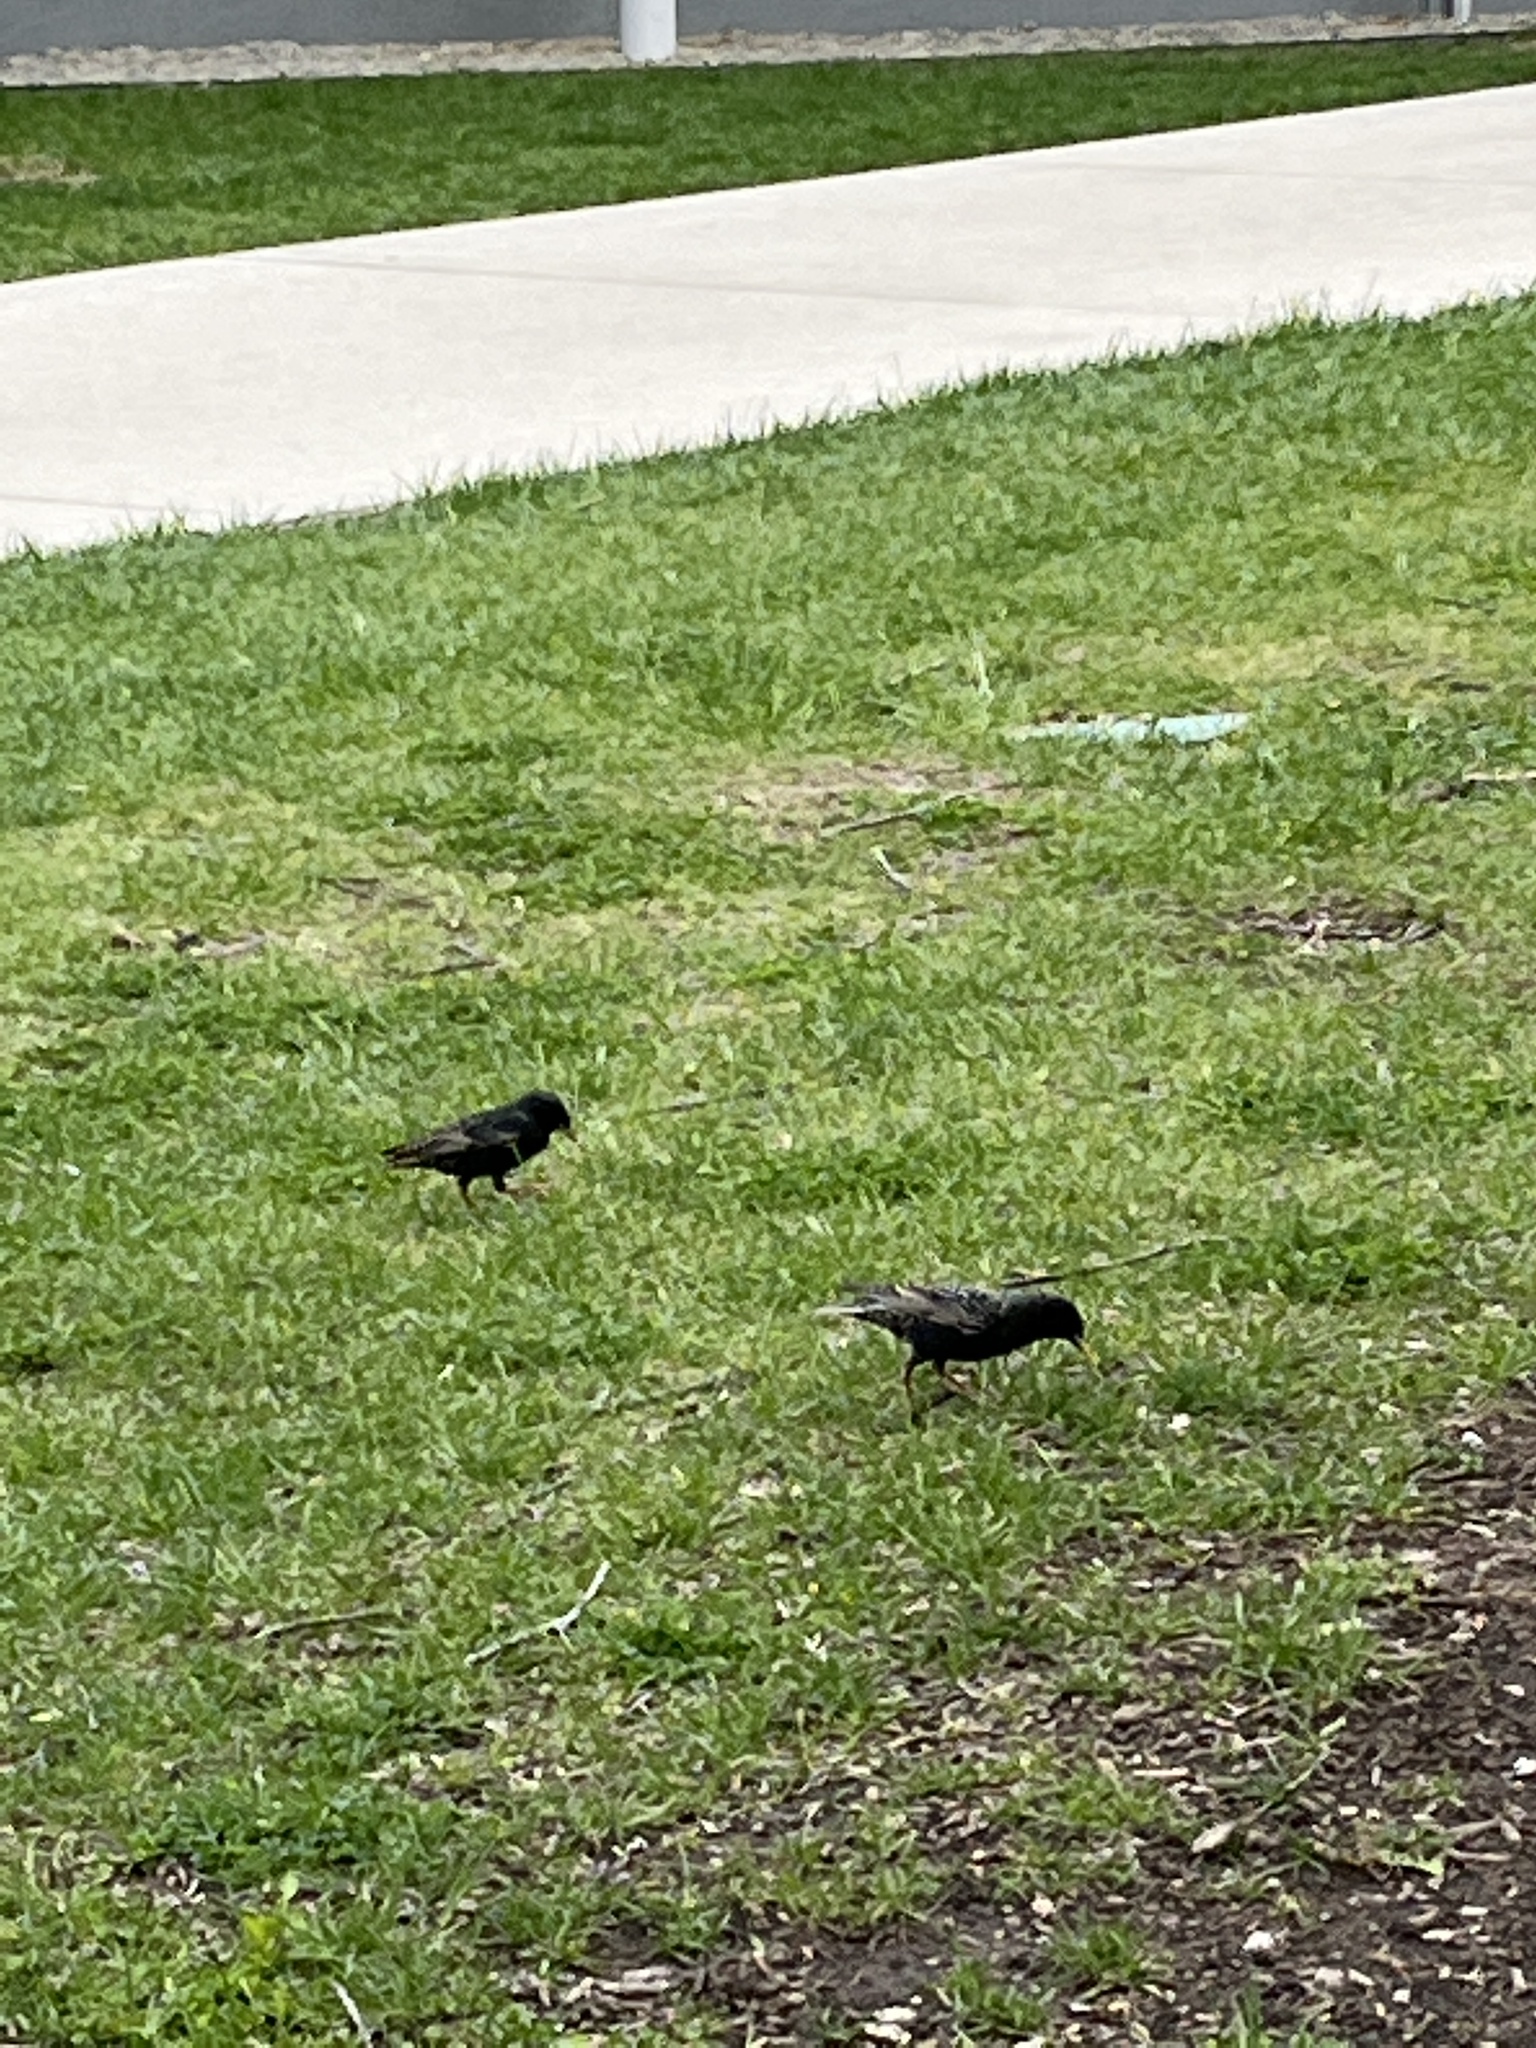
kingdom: Animalia
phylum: Chordata
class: Aves
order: Passeriformes
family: Sturnidae
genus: Sturnus
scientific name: Sturnus vulgaris
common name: Common starling
